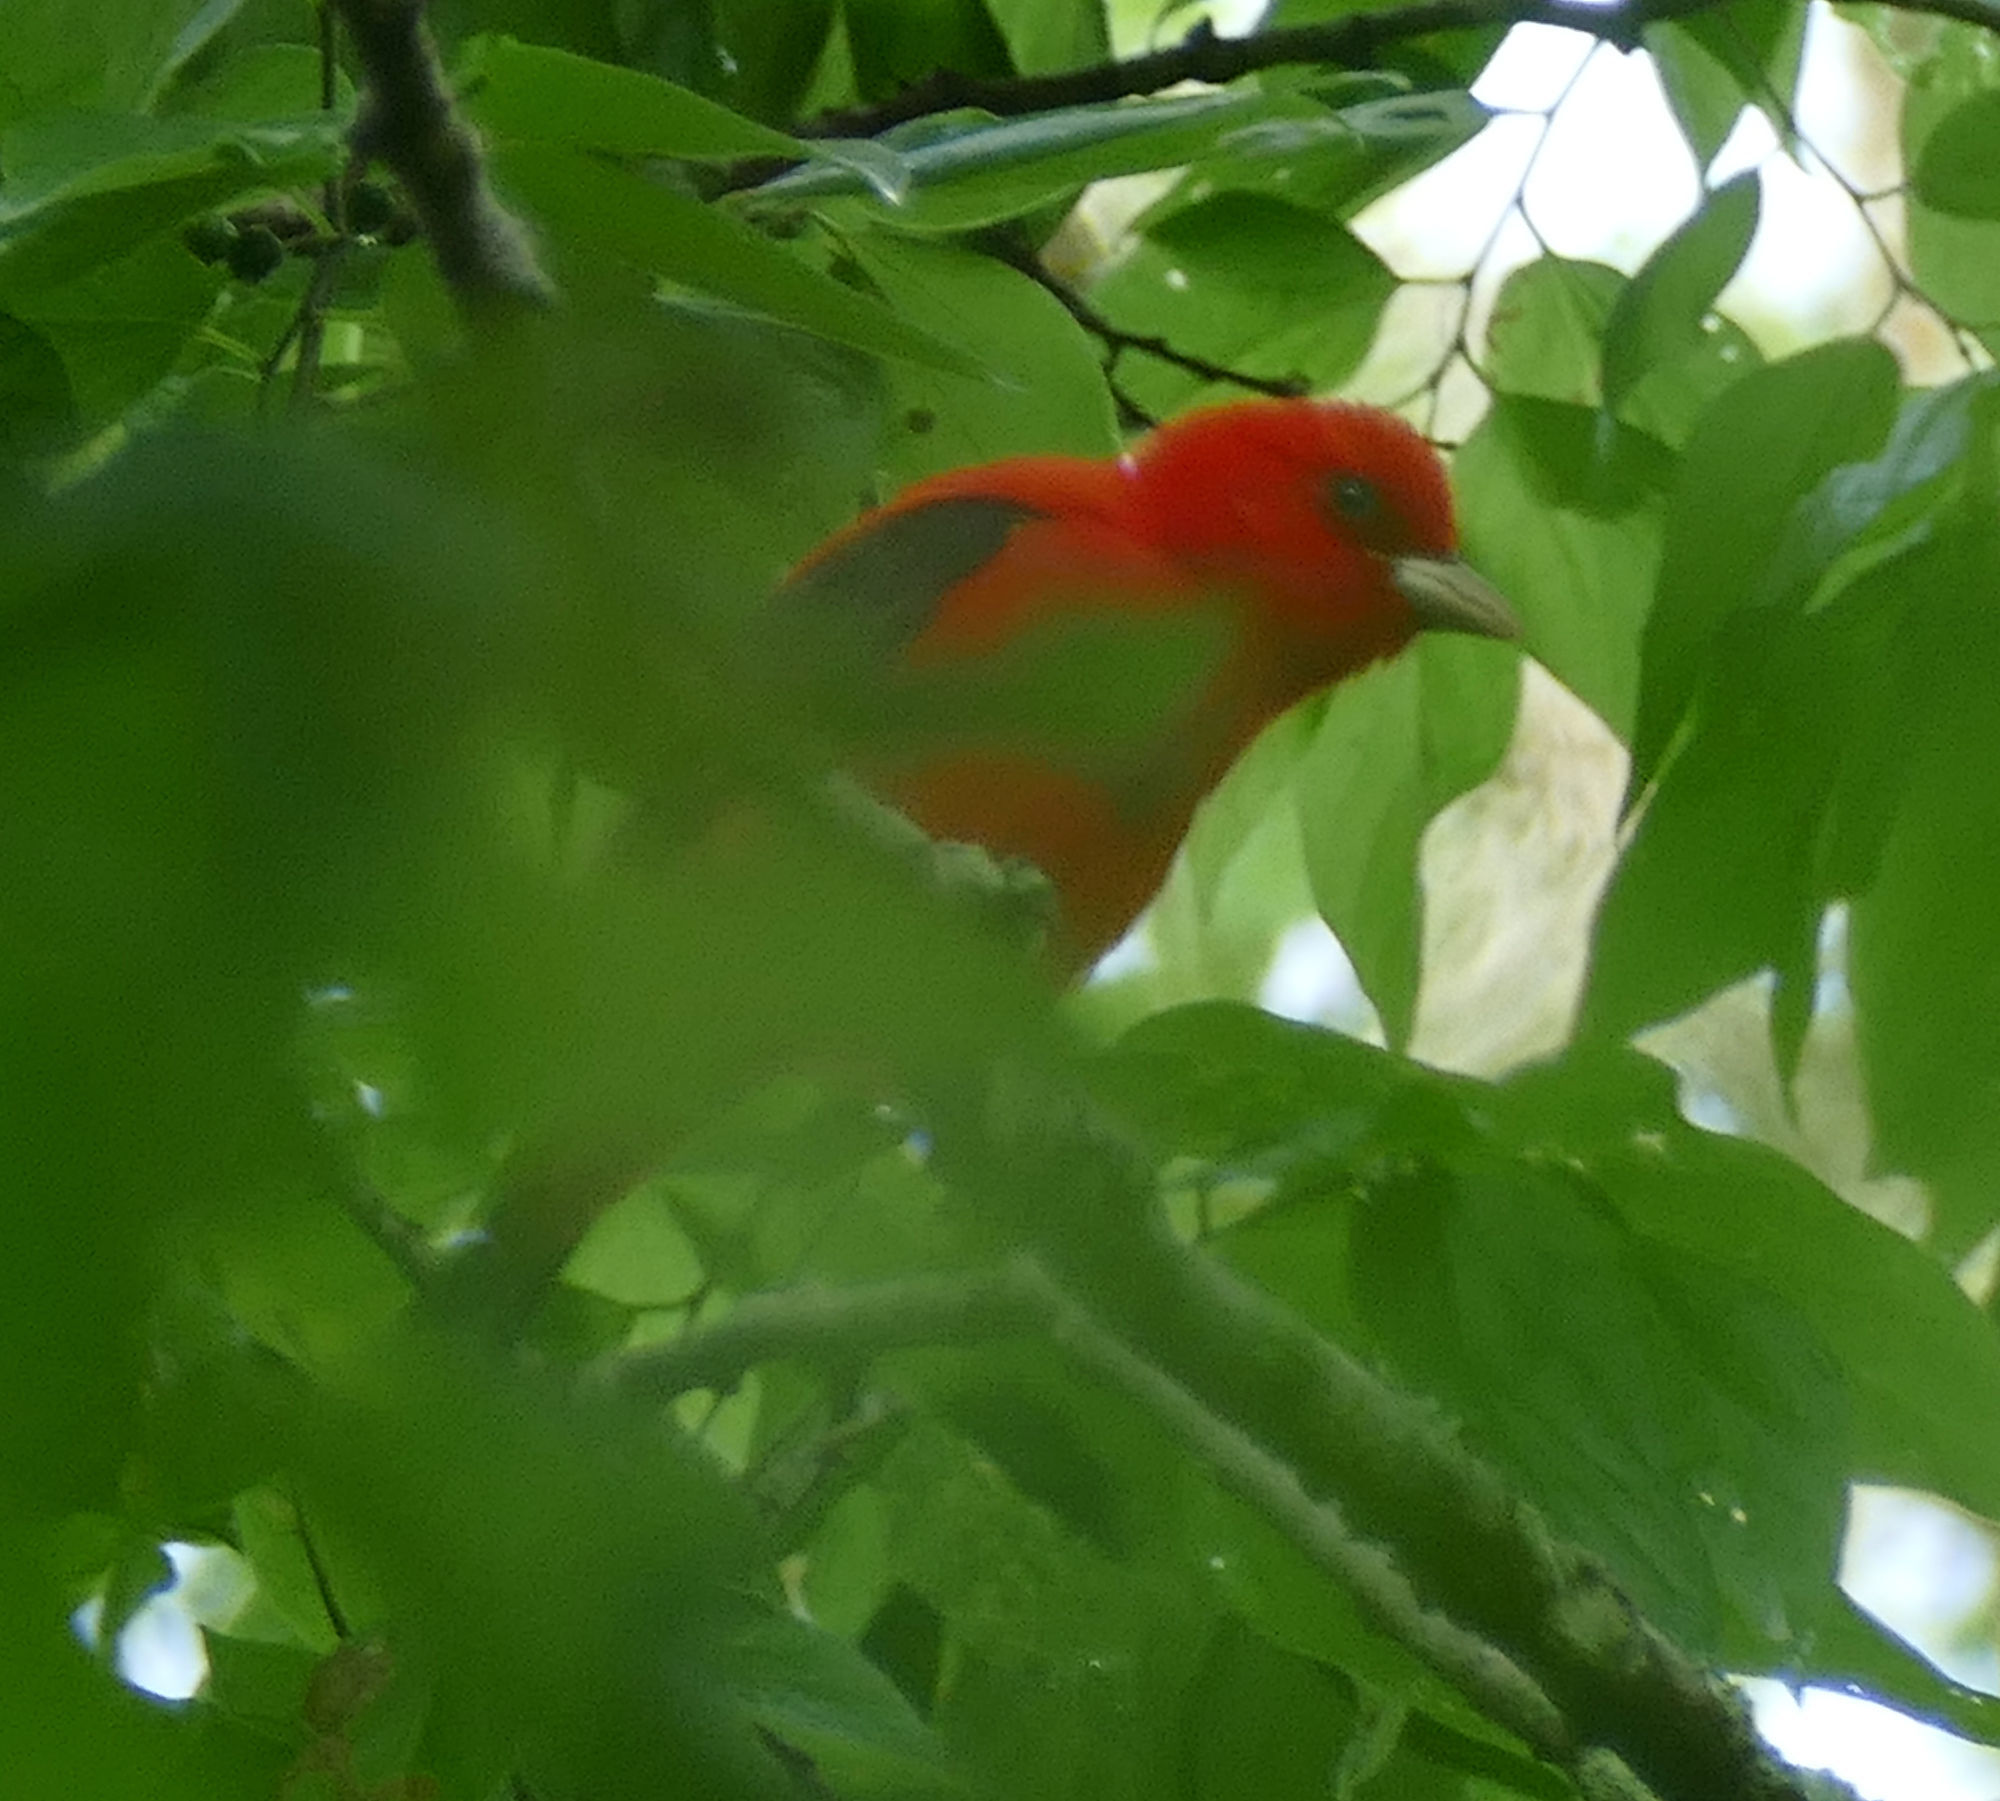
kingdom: Animalia
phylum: Chordata
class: Aves
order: Passeriformes
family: Cardinalidae
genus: Piranga
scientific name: Piranga olivacea
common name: Scarlet tanager
